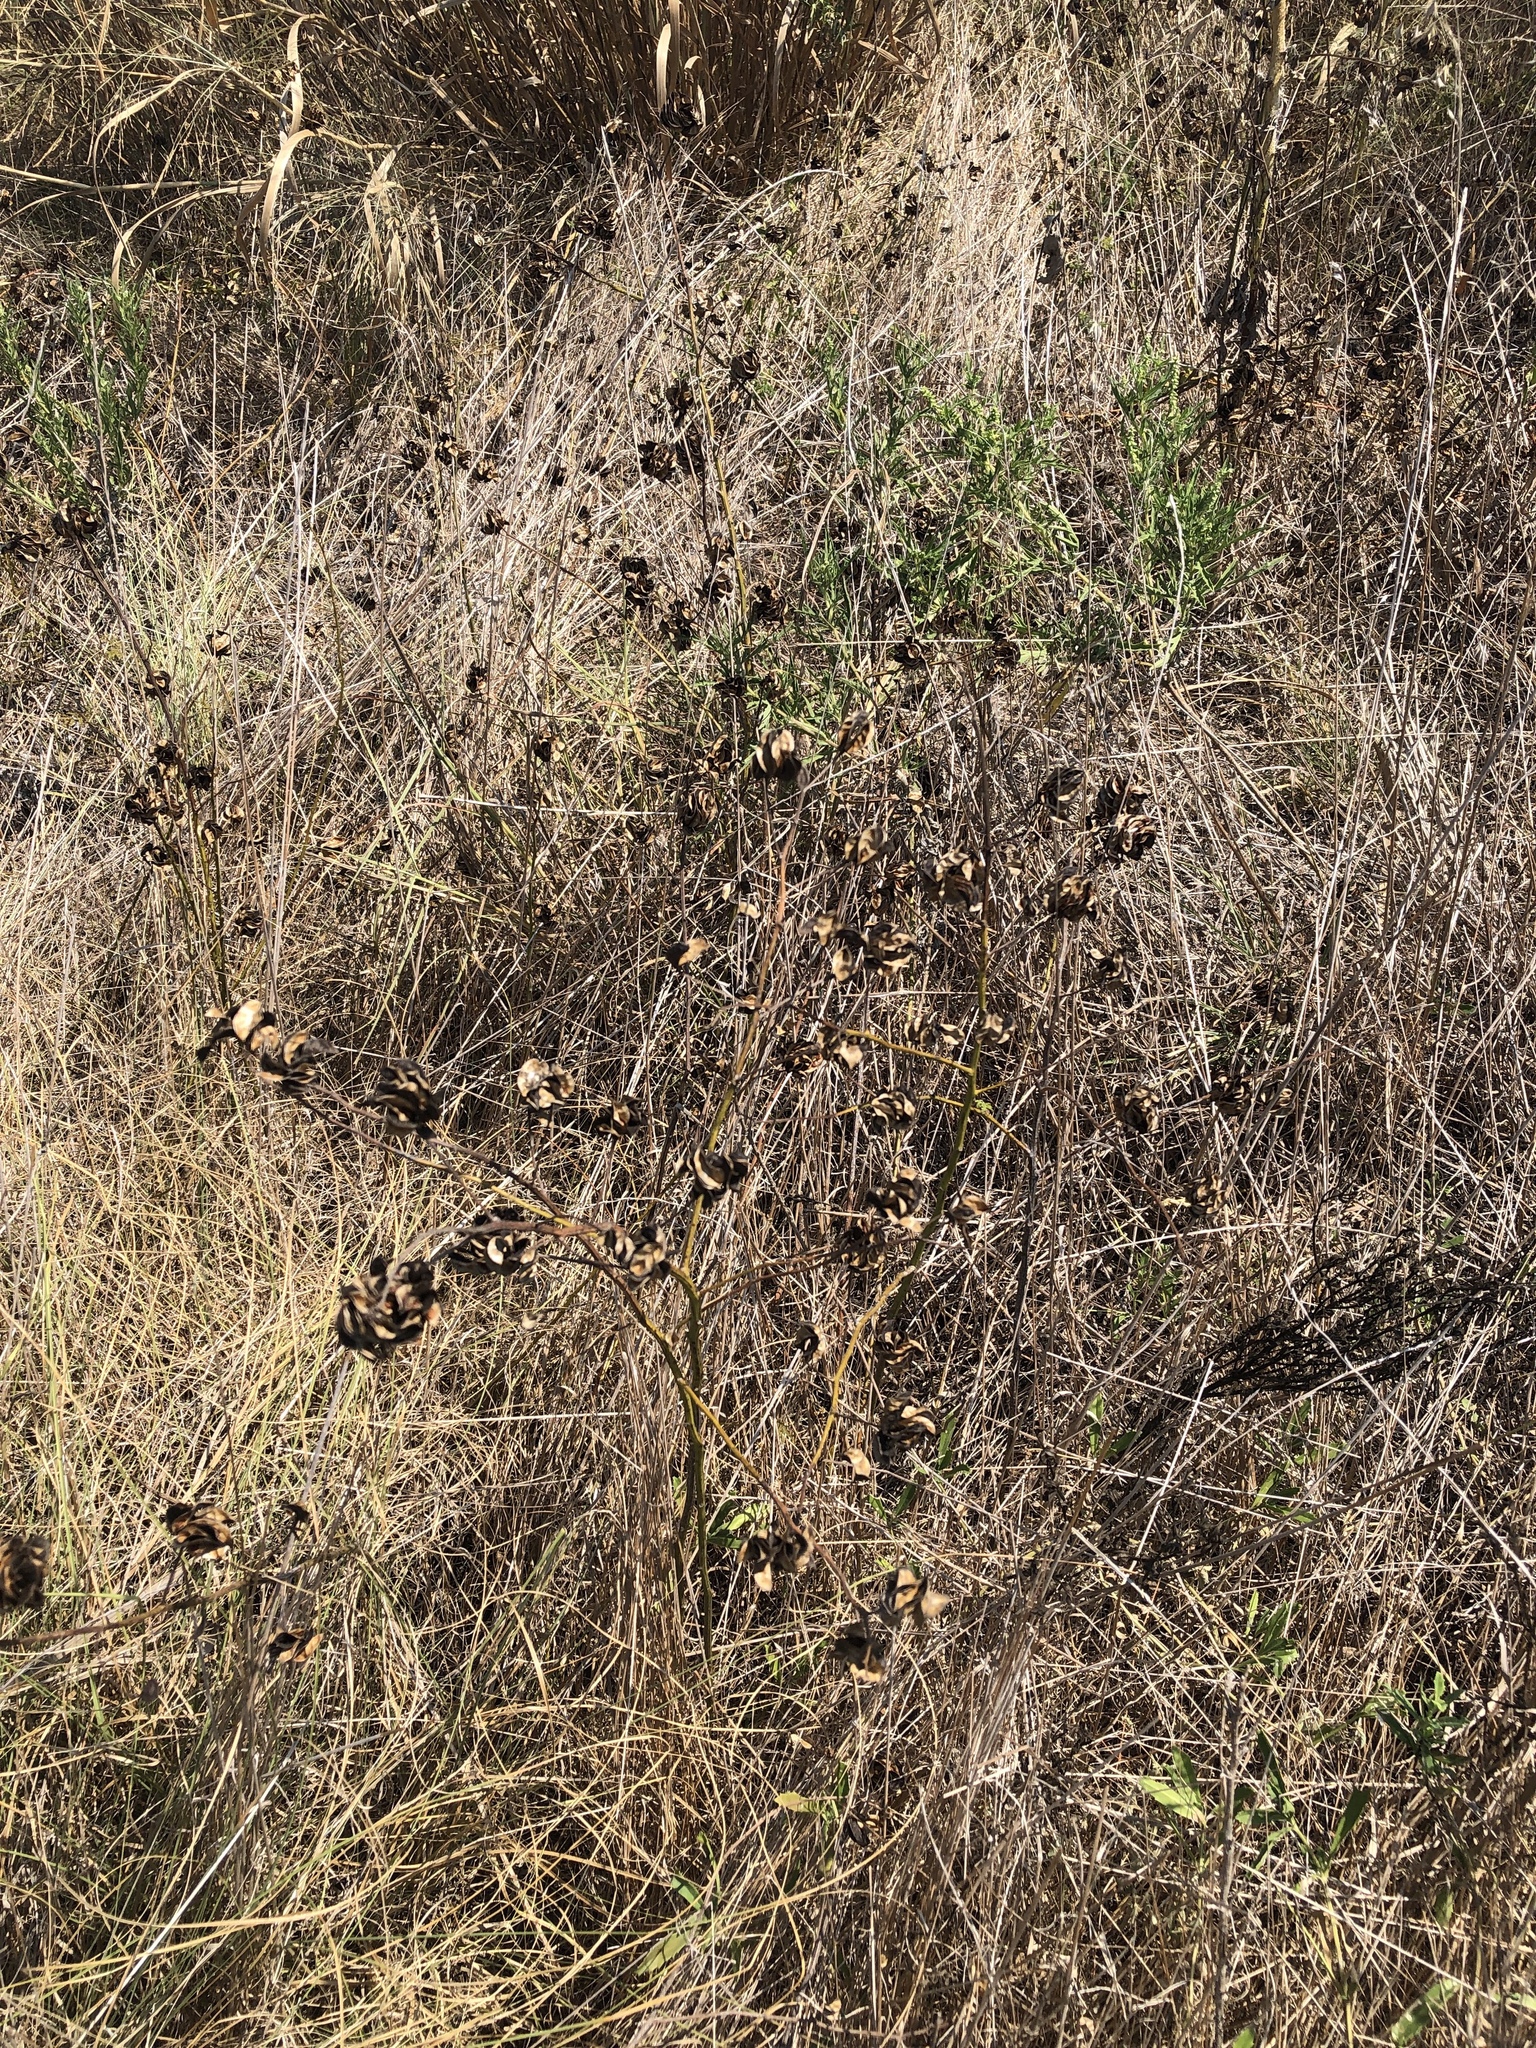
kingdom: Plantae
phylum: Tracheophyta
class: Magnoliopsida
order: Fabales
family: Fabaceae
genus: Desmanthus
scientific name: Desmanthus illinoensis
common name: Illinois bundle-flower
